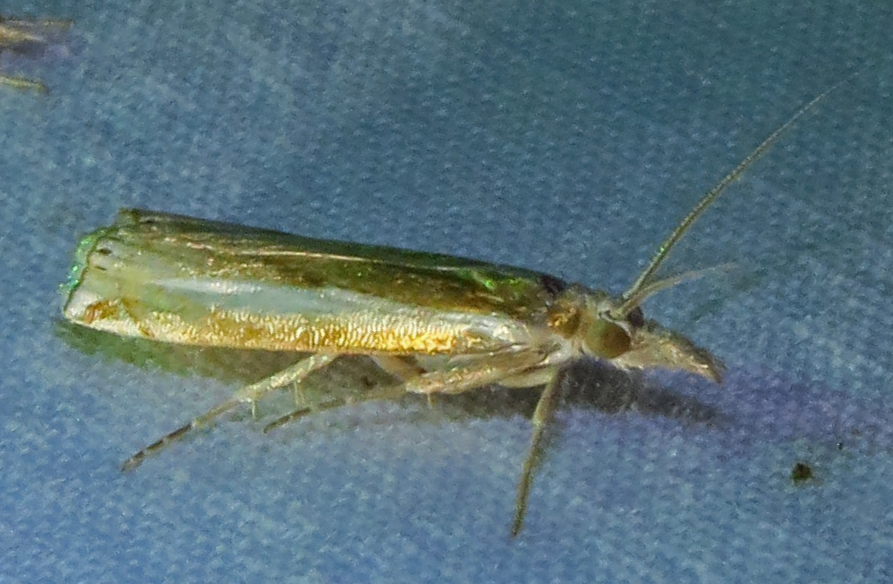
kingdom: Animalia
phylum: Arthropoda
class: Insecta
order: Lepidoptera
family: Crambidae
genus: Crambus
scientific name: Crambus praefectellus
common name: Common grass-veneer
